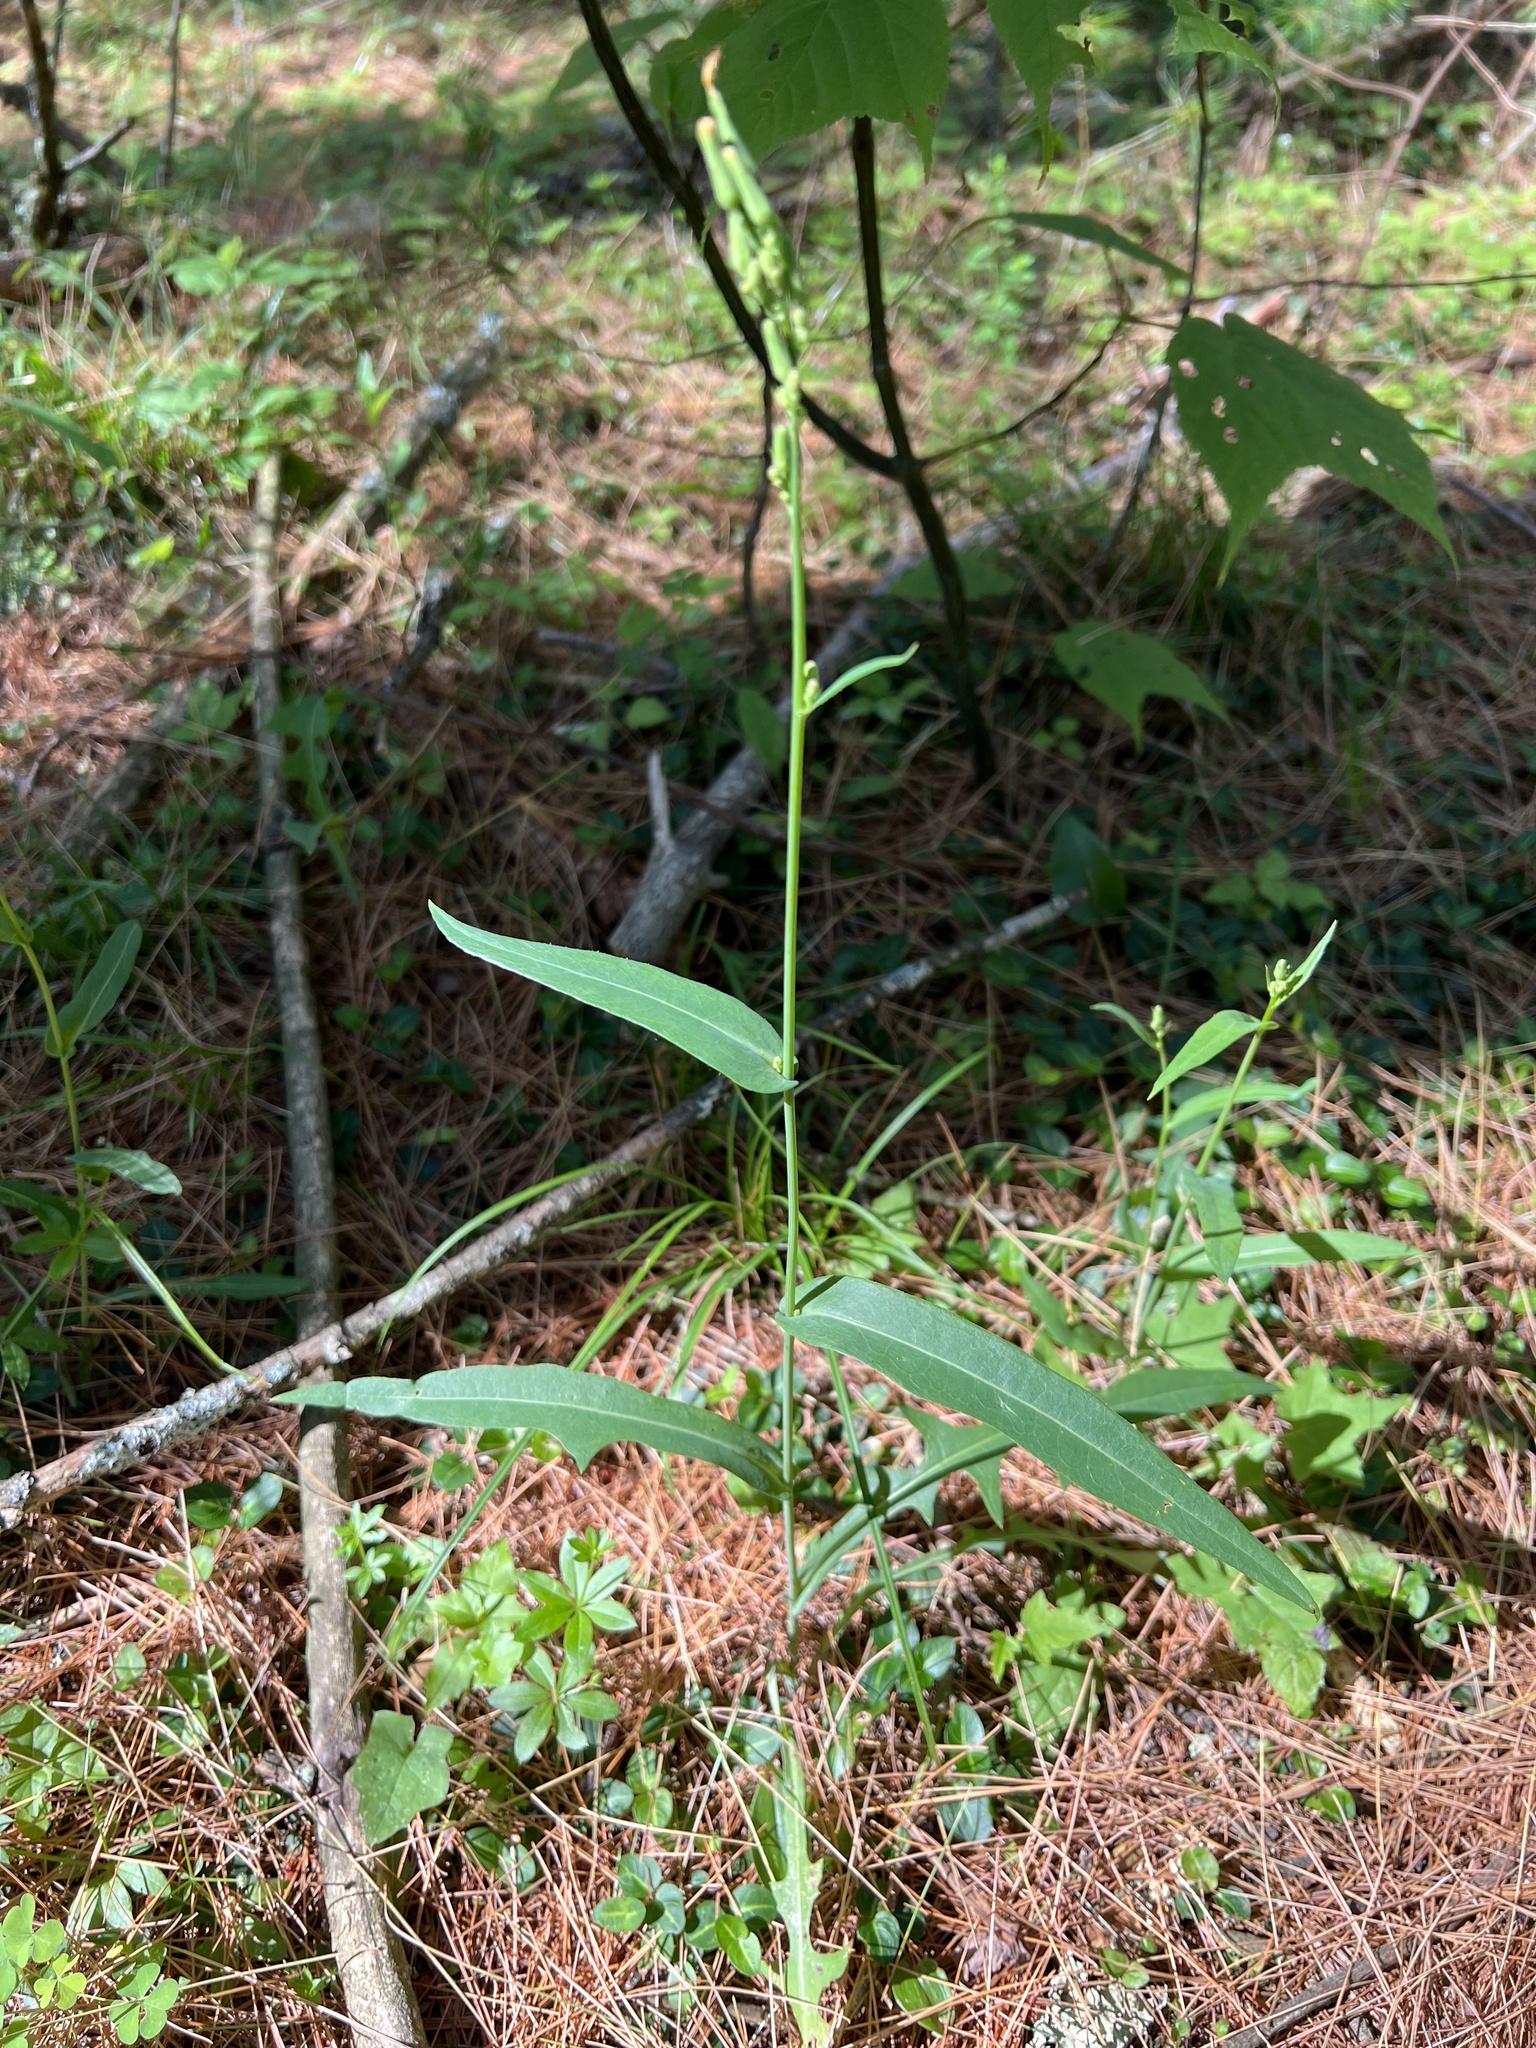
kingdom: Plantae
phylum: Tracheophyta
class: Magnoliopsida
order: Asterales
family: Asteraceae
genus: Lactuca
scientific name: Lactuca canadensis
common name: Canada lettuce
